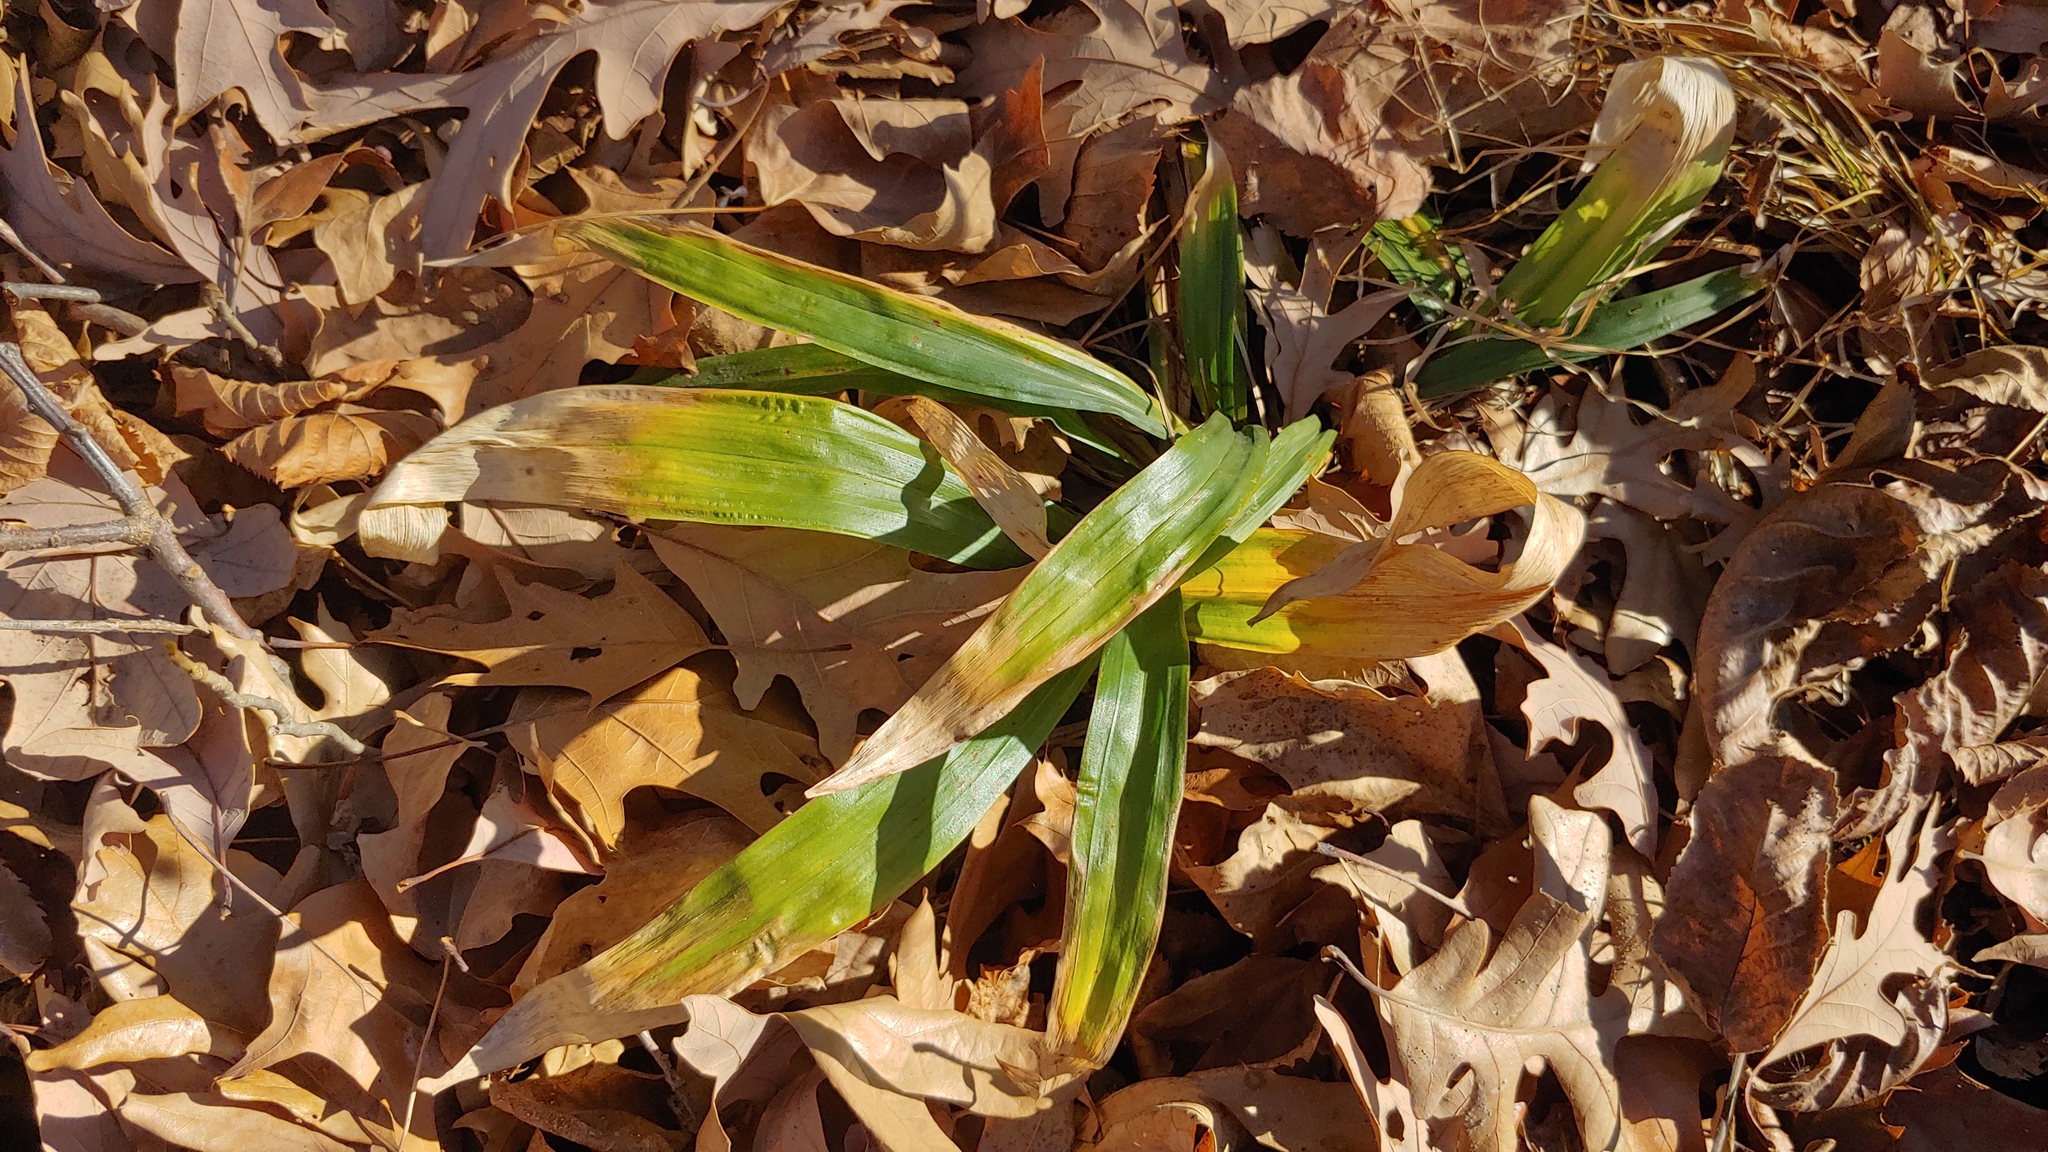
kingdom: Plantae
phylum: Tracheophyta
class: Liliopsida
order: Poales
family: Cyperaceae
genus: Carex
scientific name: Carex albursina
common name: Blunt-scale wood sedge
